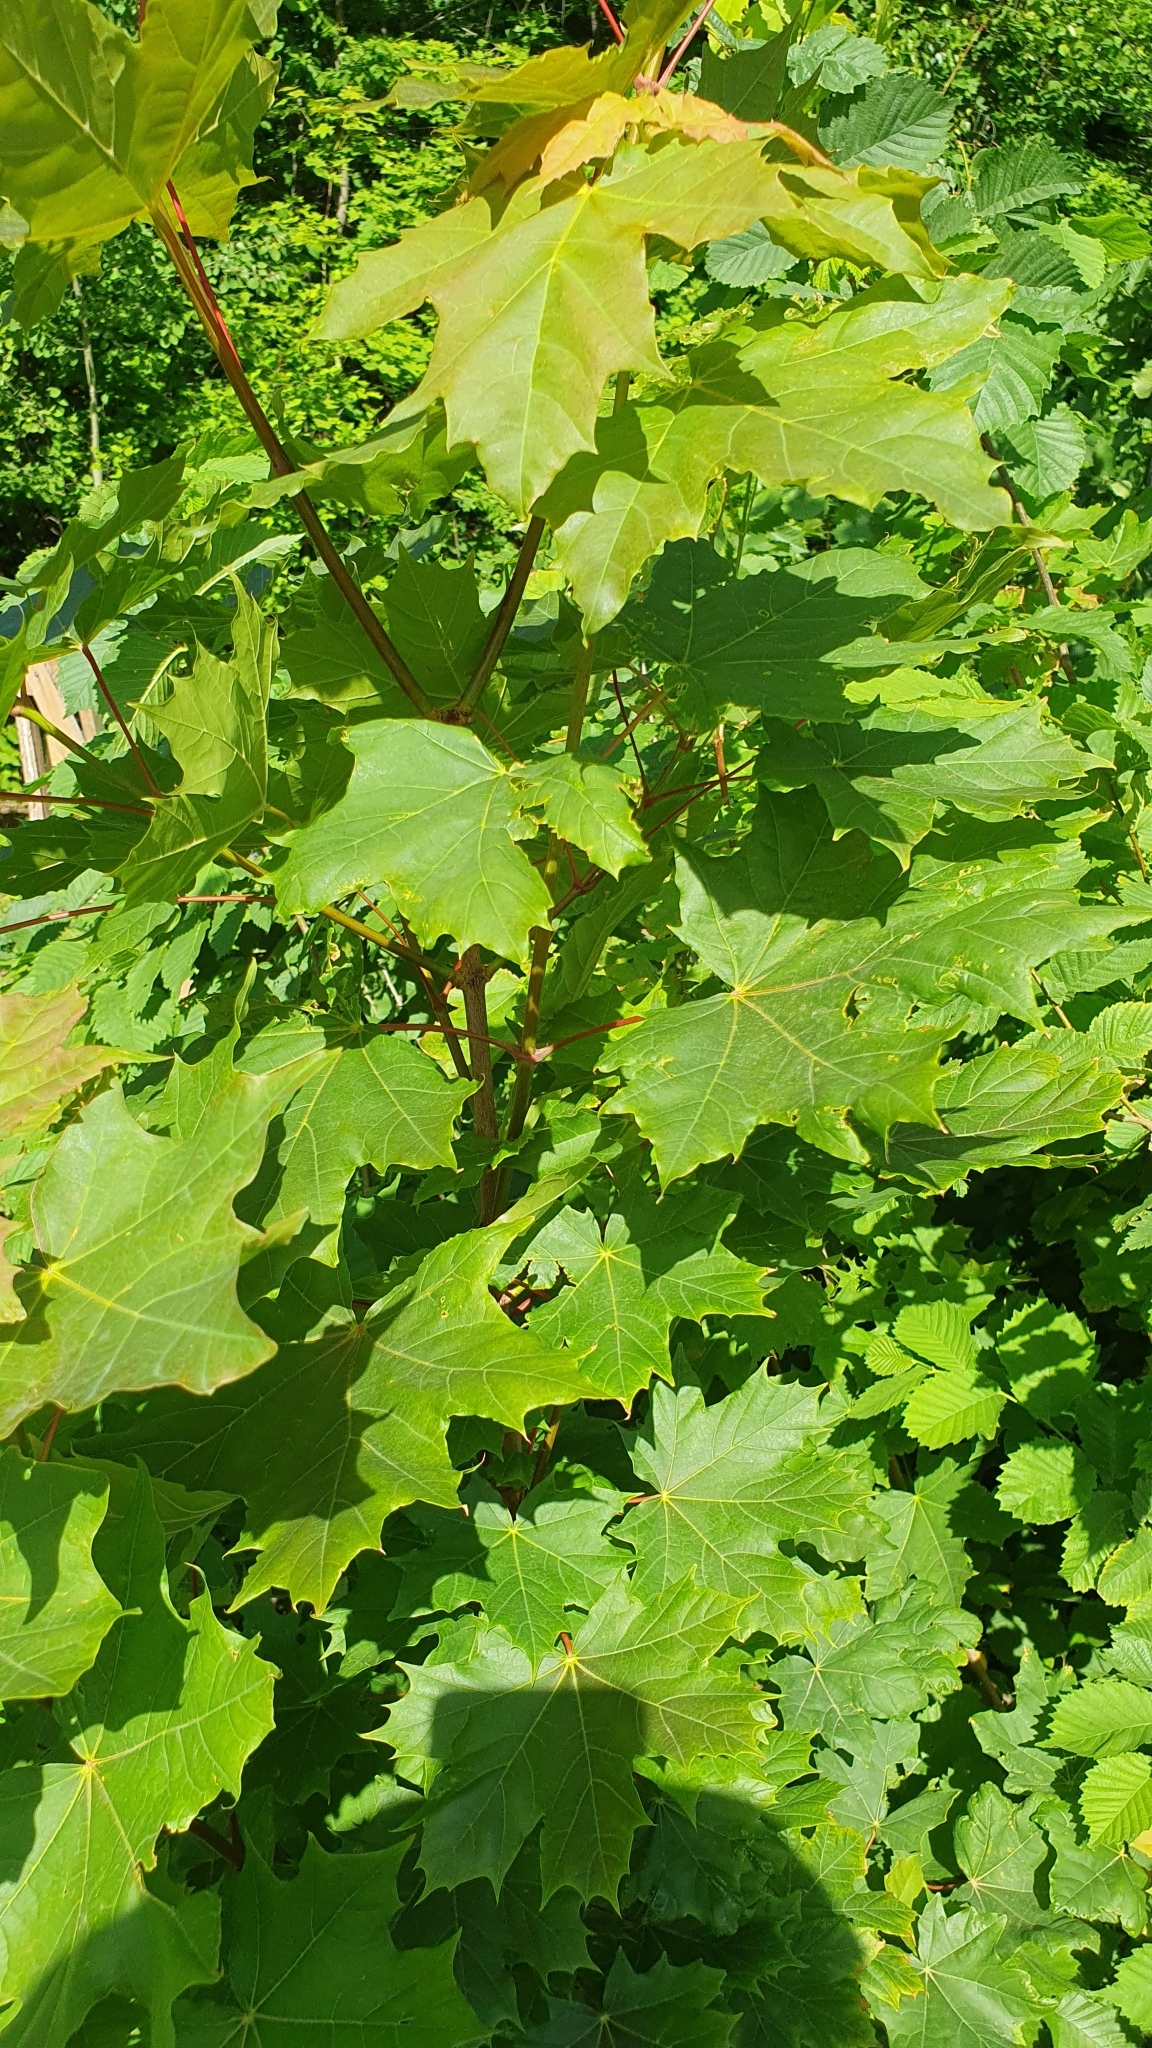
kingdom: Plantae
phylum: Tracheophyta
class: Magnoliopsida
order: Sapindales
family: Sapindaceae
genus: Acer
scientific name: Acer platanoides
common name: Norway maple
